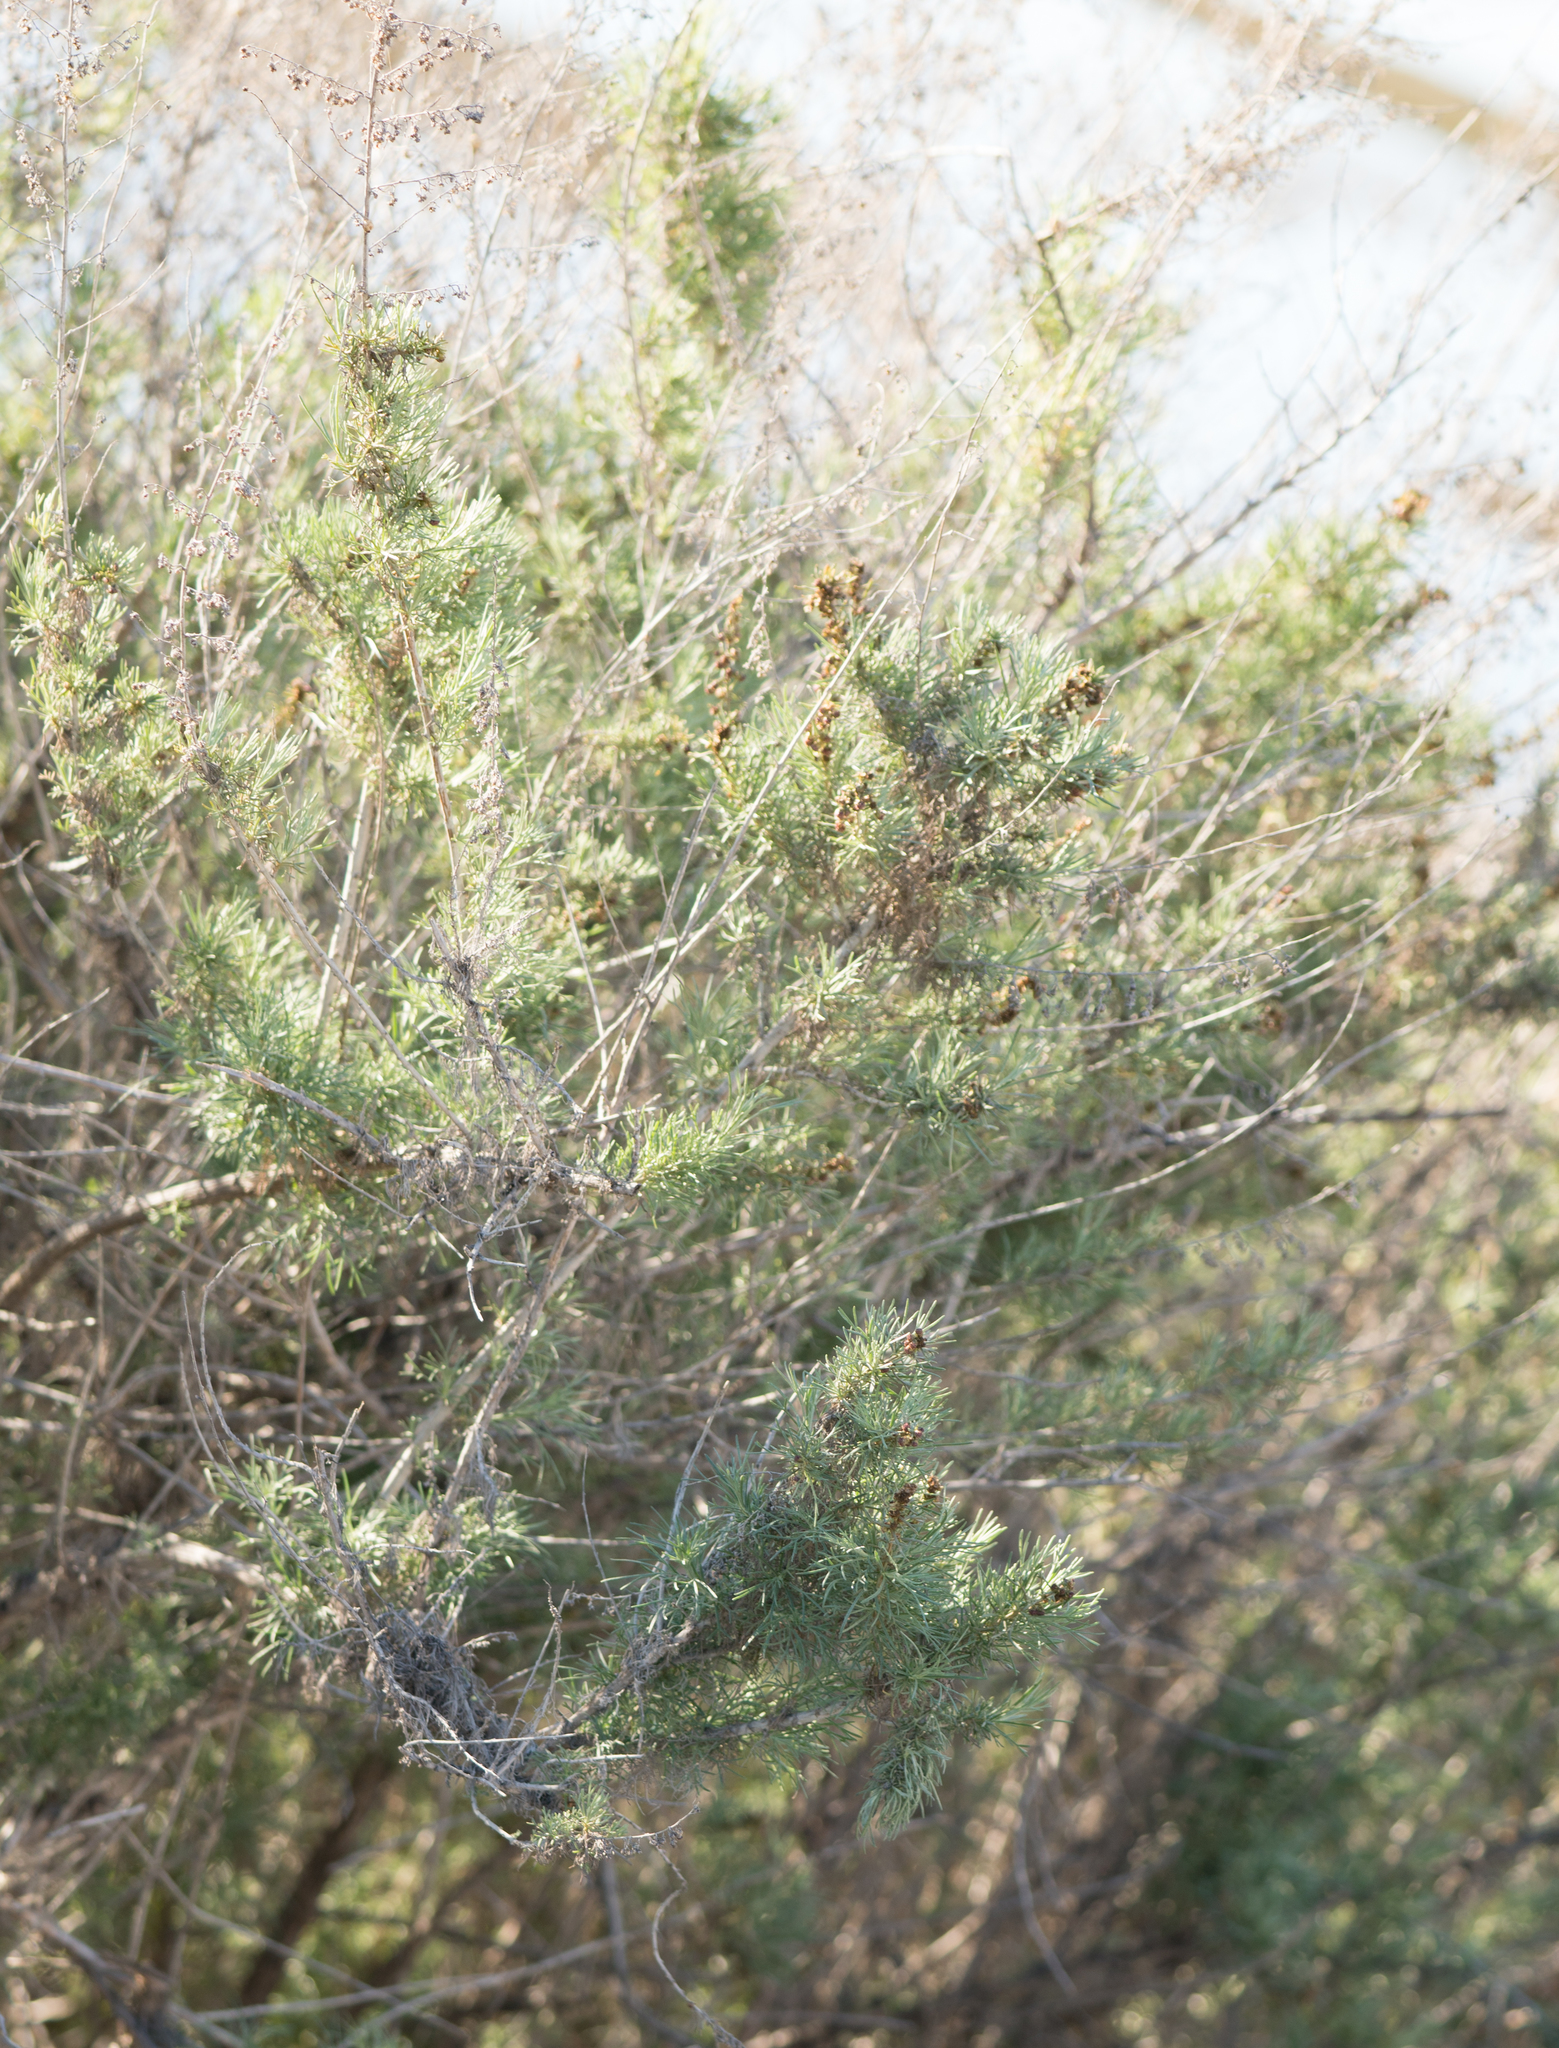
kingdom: Plantae
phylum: Tracheophyta
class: Magnoliopsida
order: Asterales
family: Asteraceae
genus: Artemisia
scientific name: Artemisia californica
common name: California sagebrush
